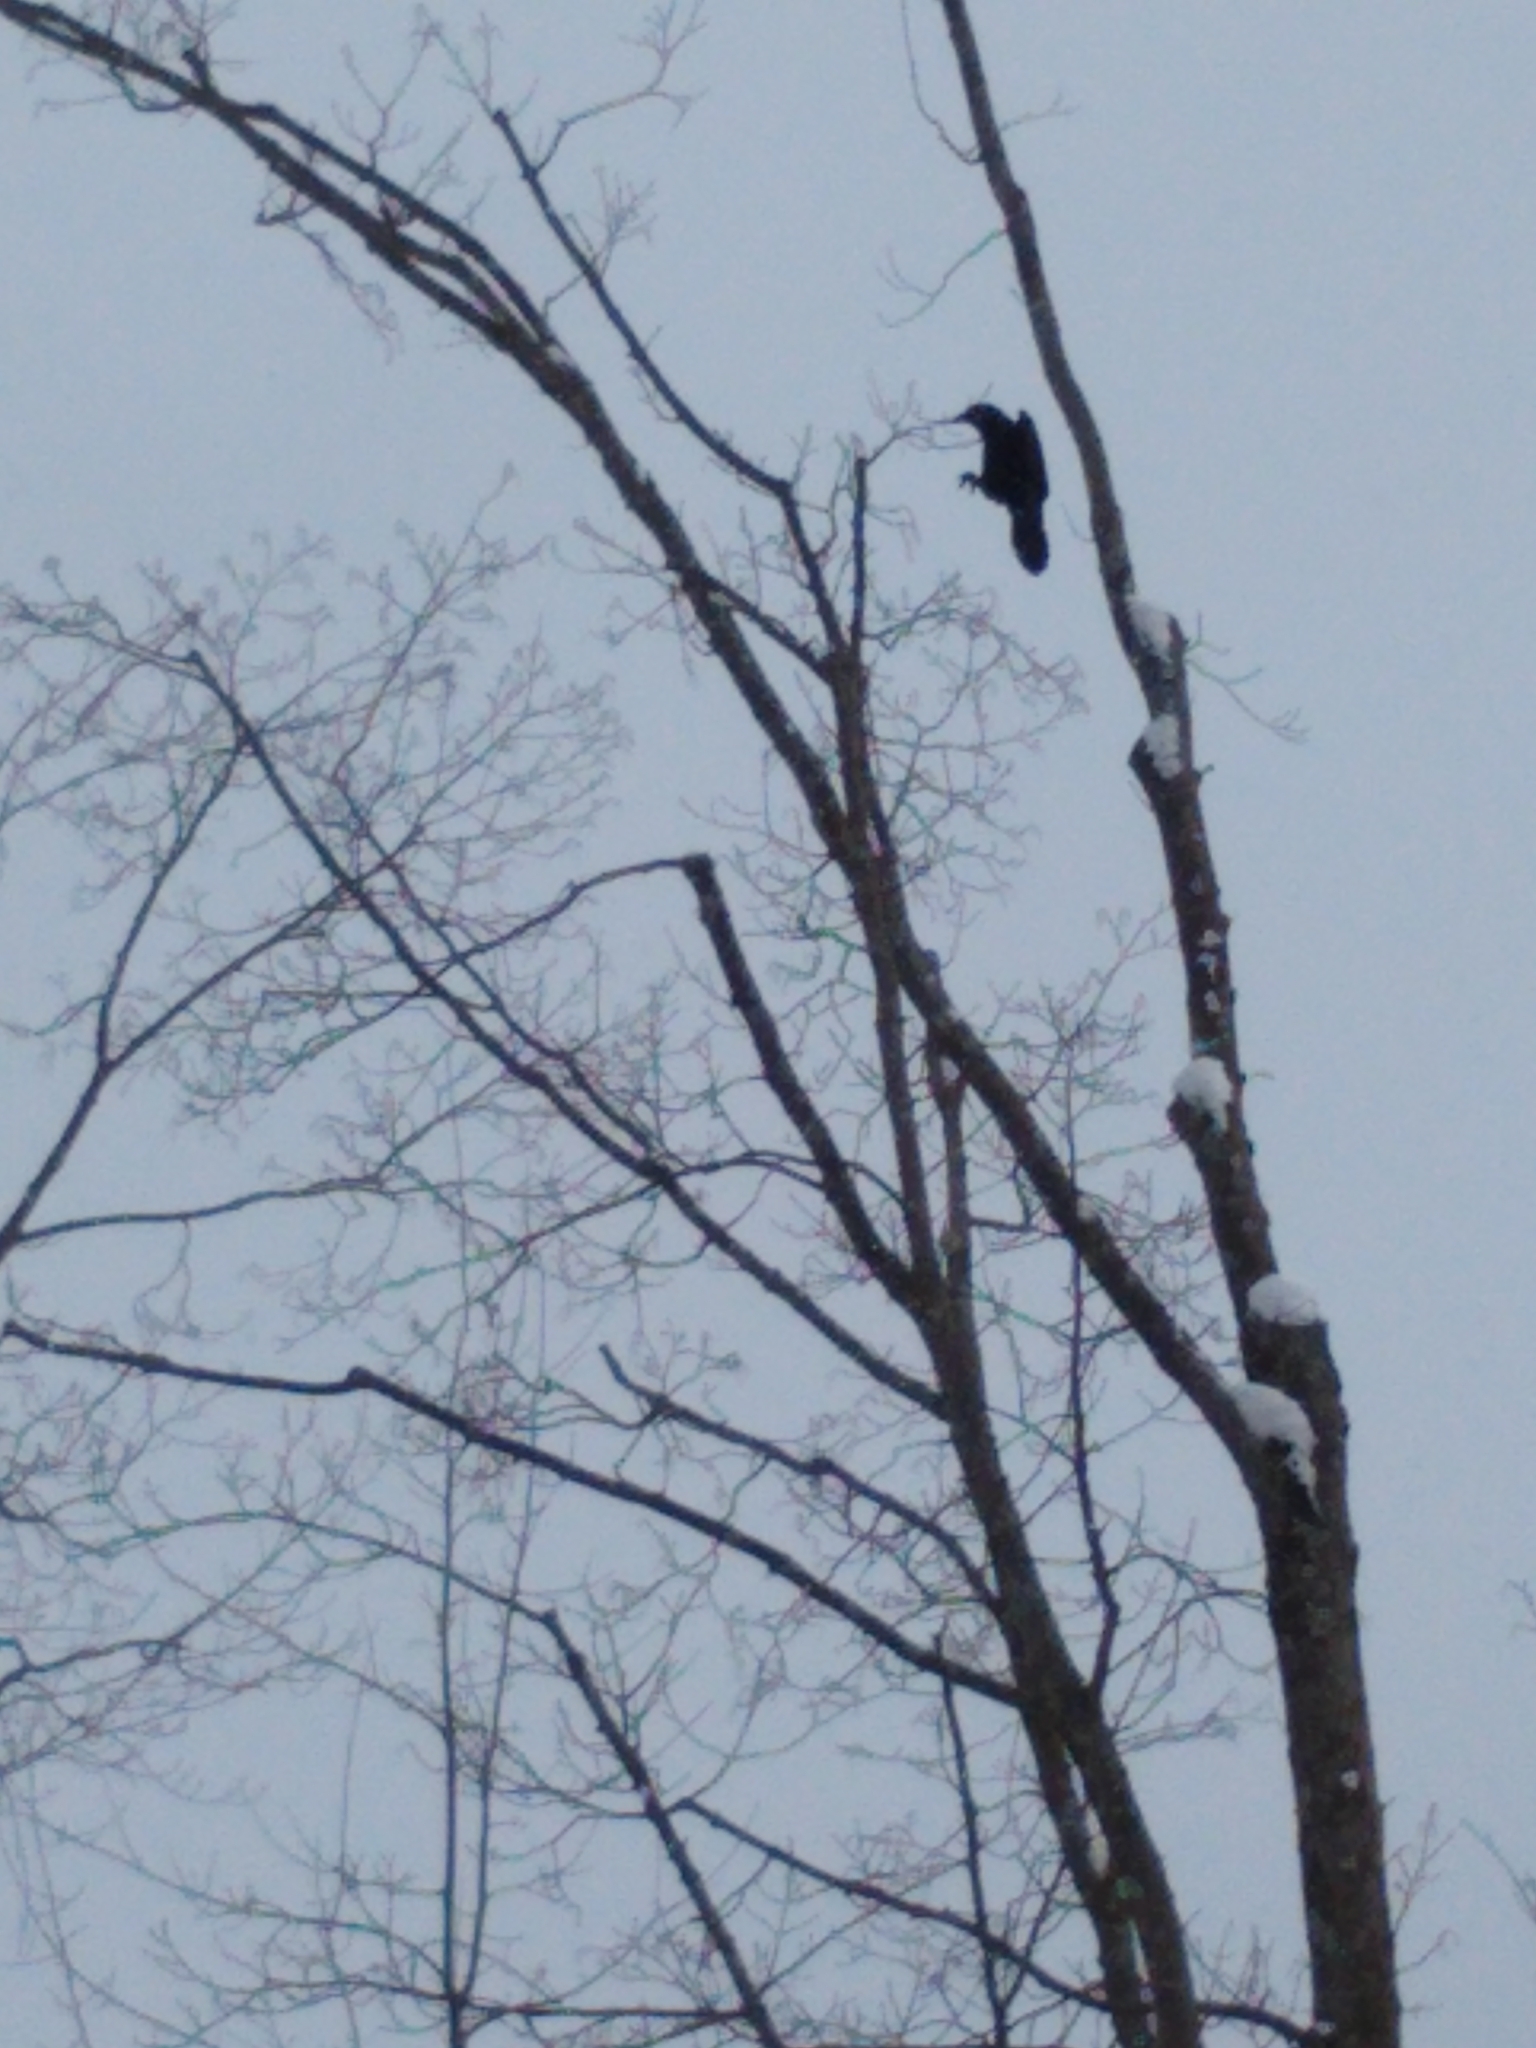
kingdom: Animalia
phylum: Chordata
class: Aves
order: Passeriformes
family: Corvidae
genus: Corvus
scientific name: Corvus
